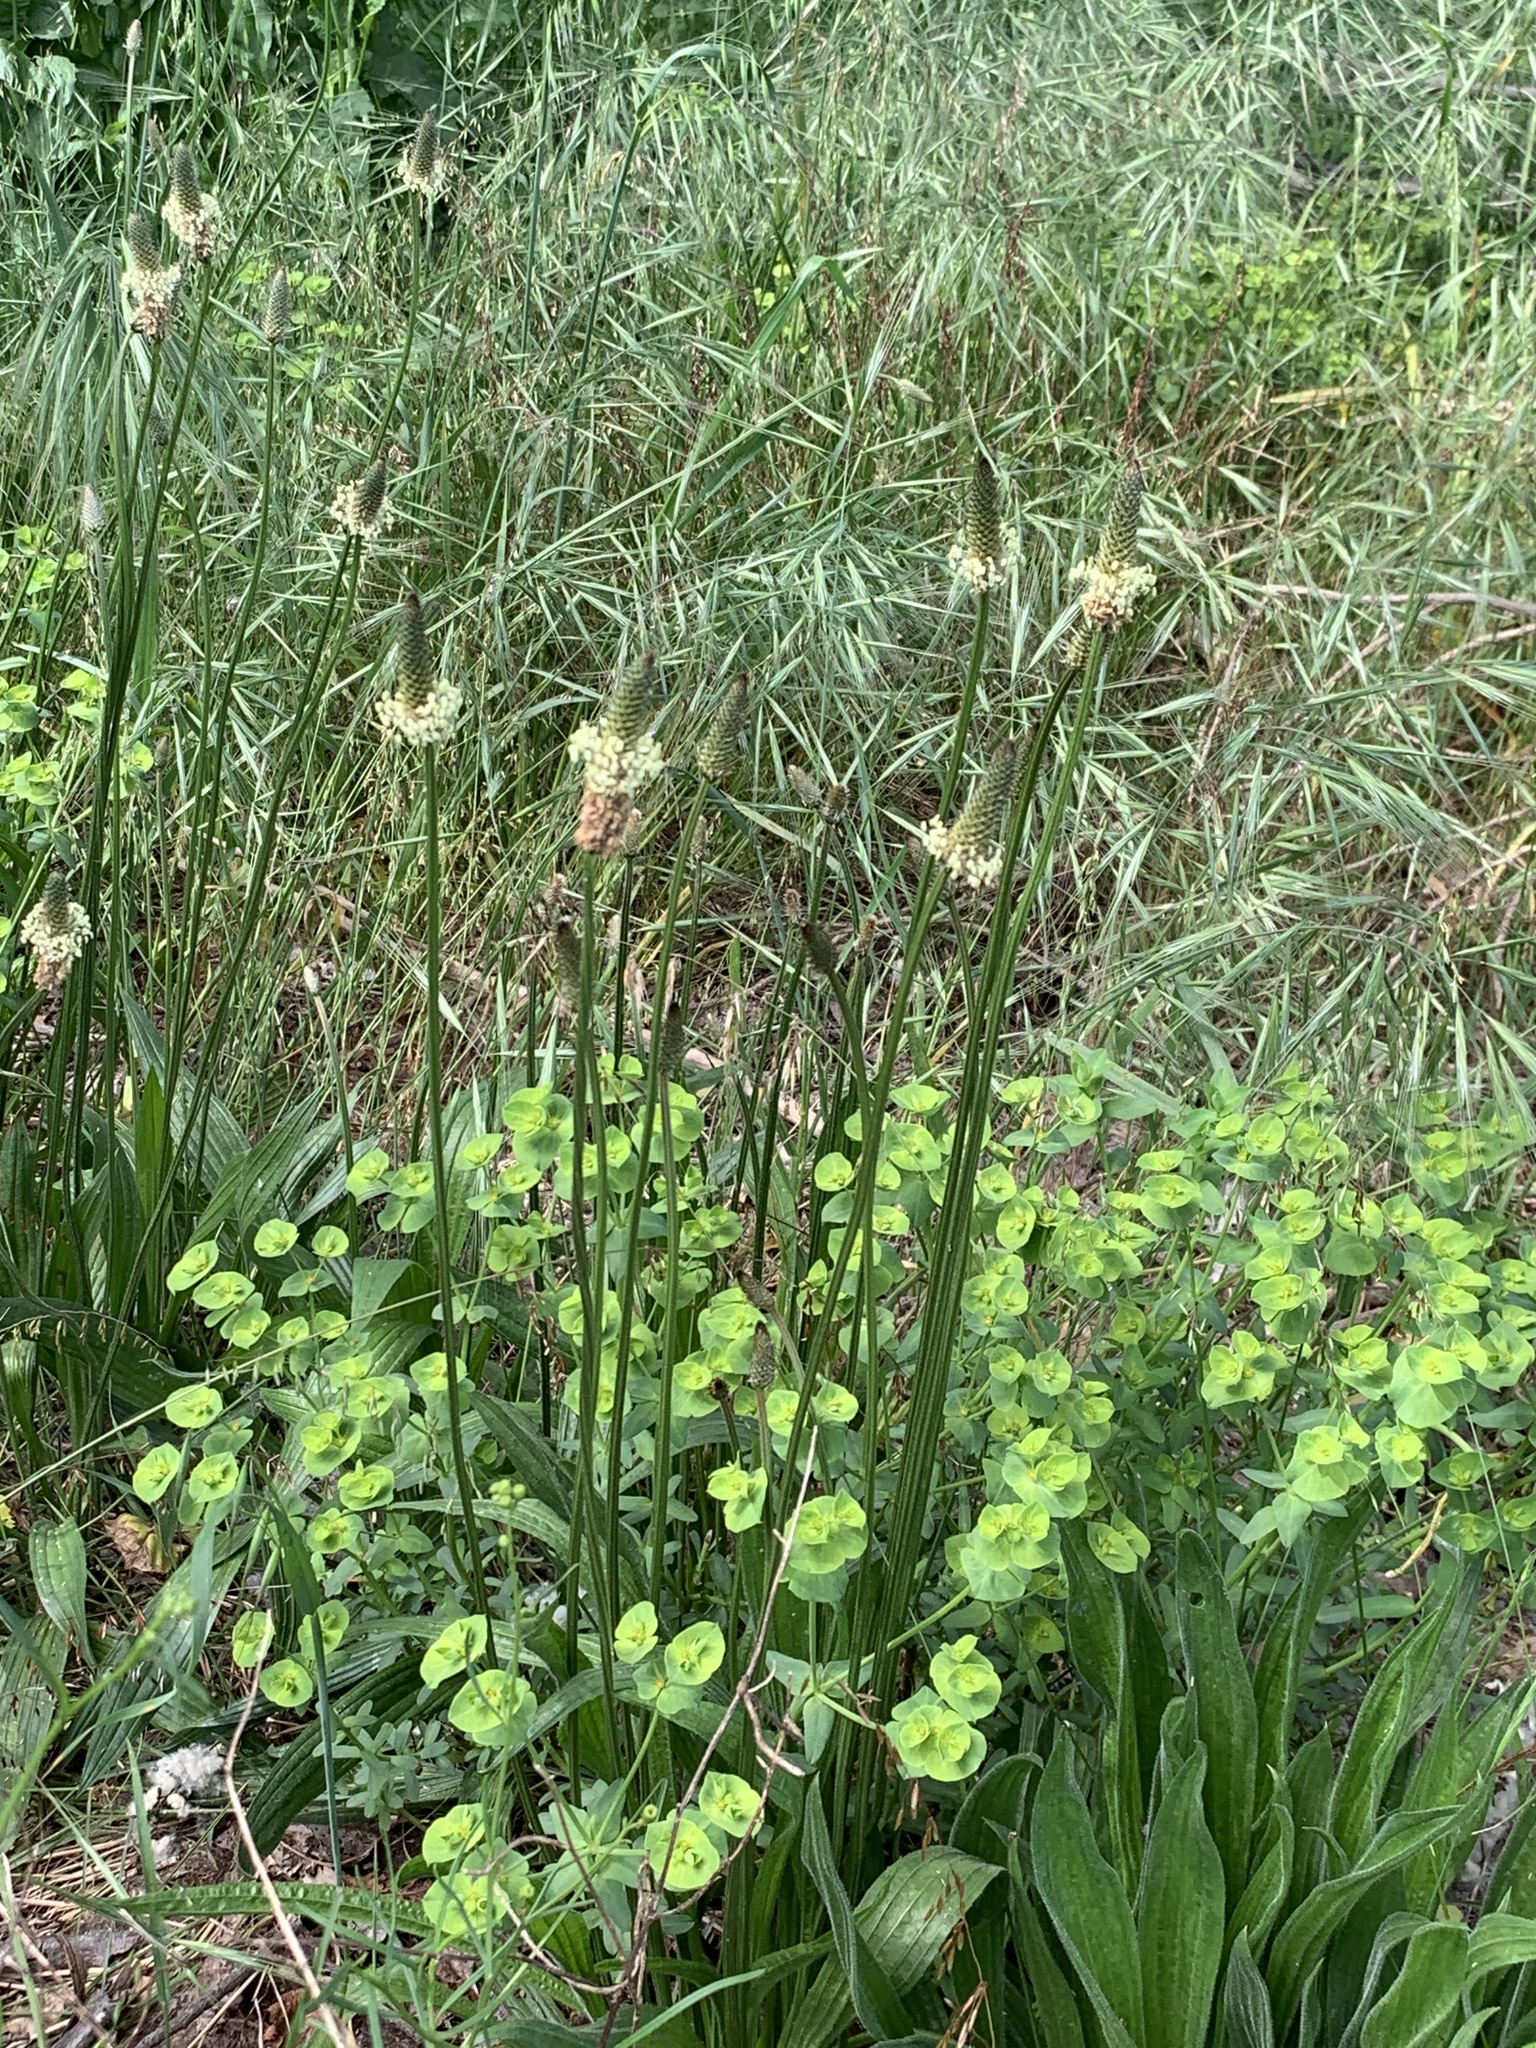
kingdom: Plantae
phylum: Tracheophyta
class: Magnoliopsida
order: Lamiales
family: Plantaginaceae
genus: Plantago
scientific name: Plantago lanceolata
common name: Ribwort plantain
